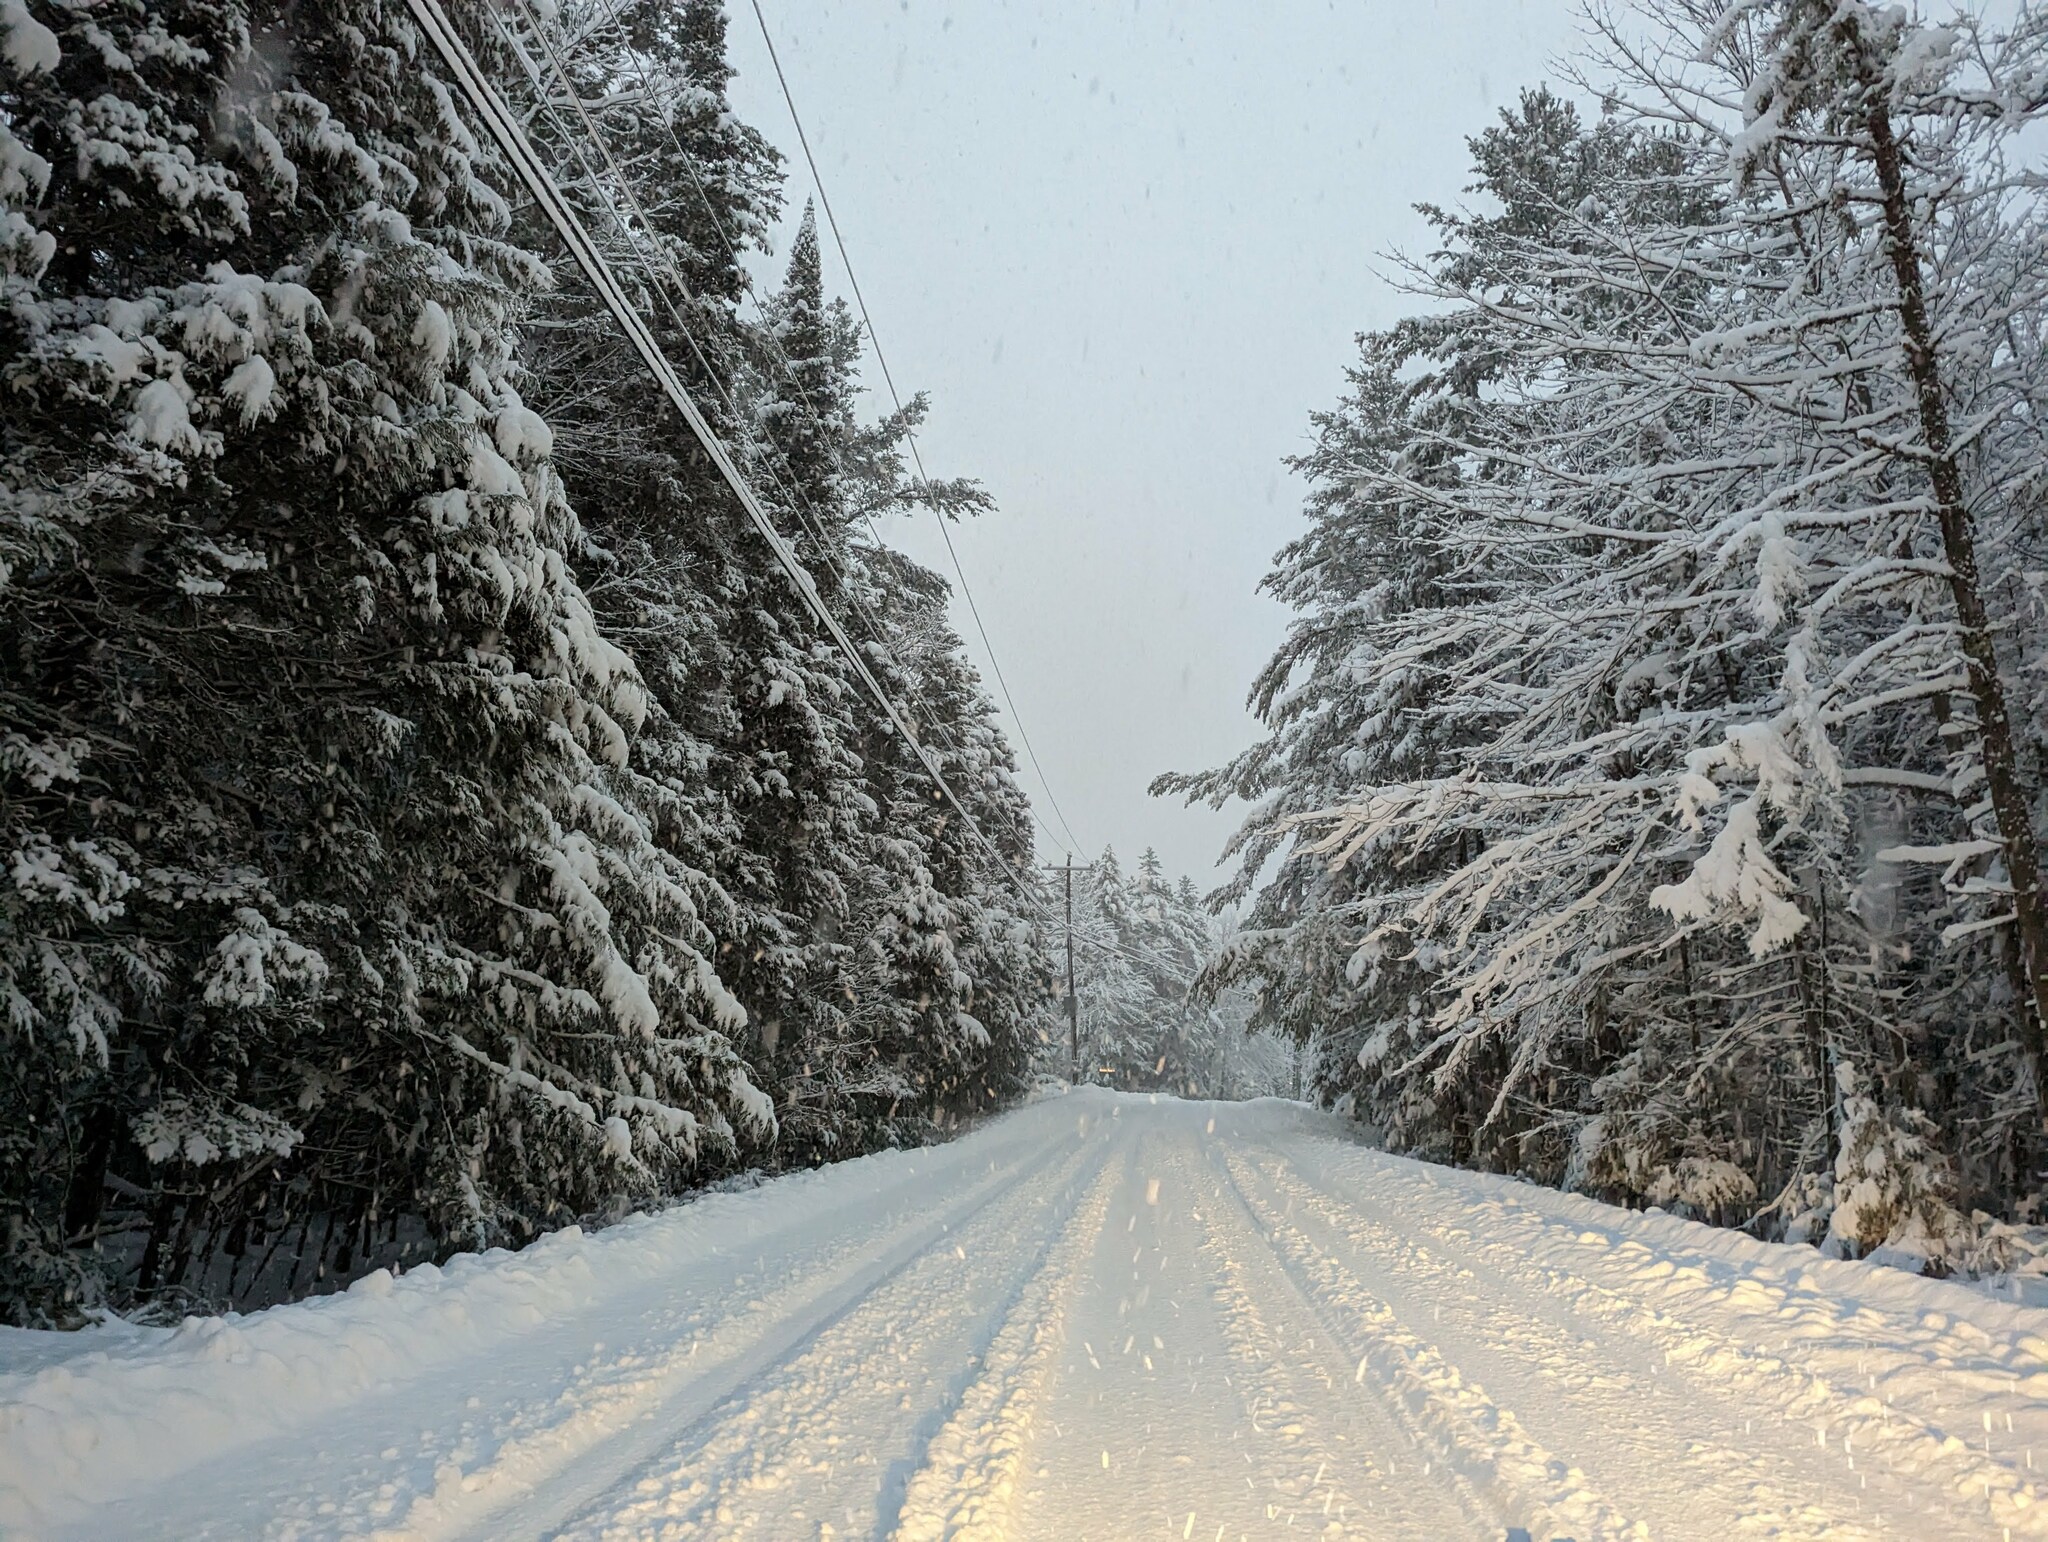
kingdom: Plantae
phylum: Tracheophyta
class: Pinopsida
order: Pinales
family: Pinaceae
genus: Pinus
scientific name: Pinus strobus
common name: Weymouth pine
